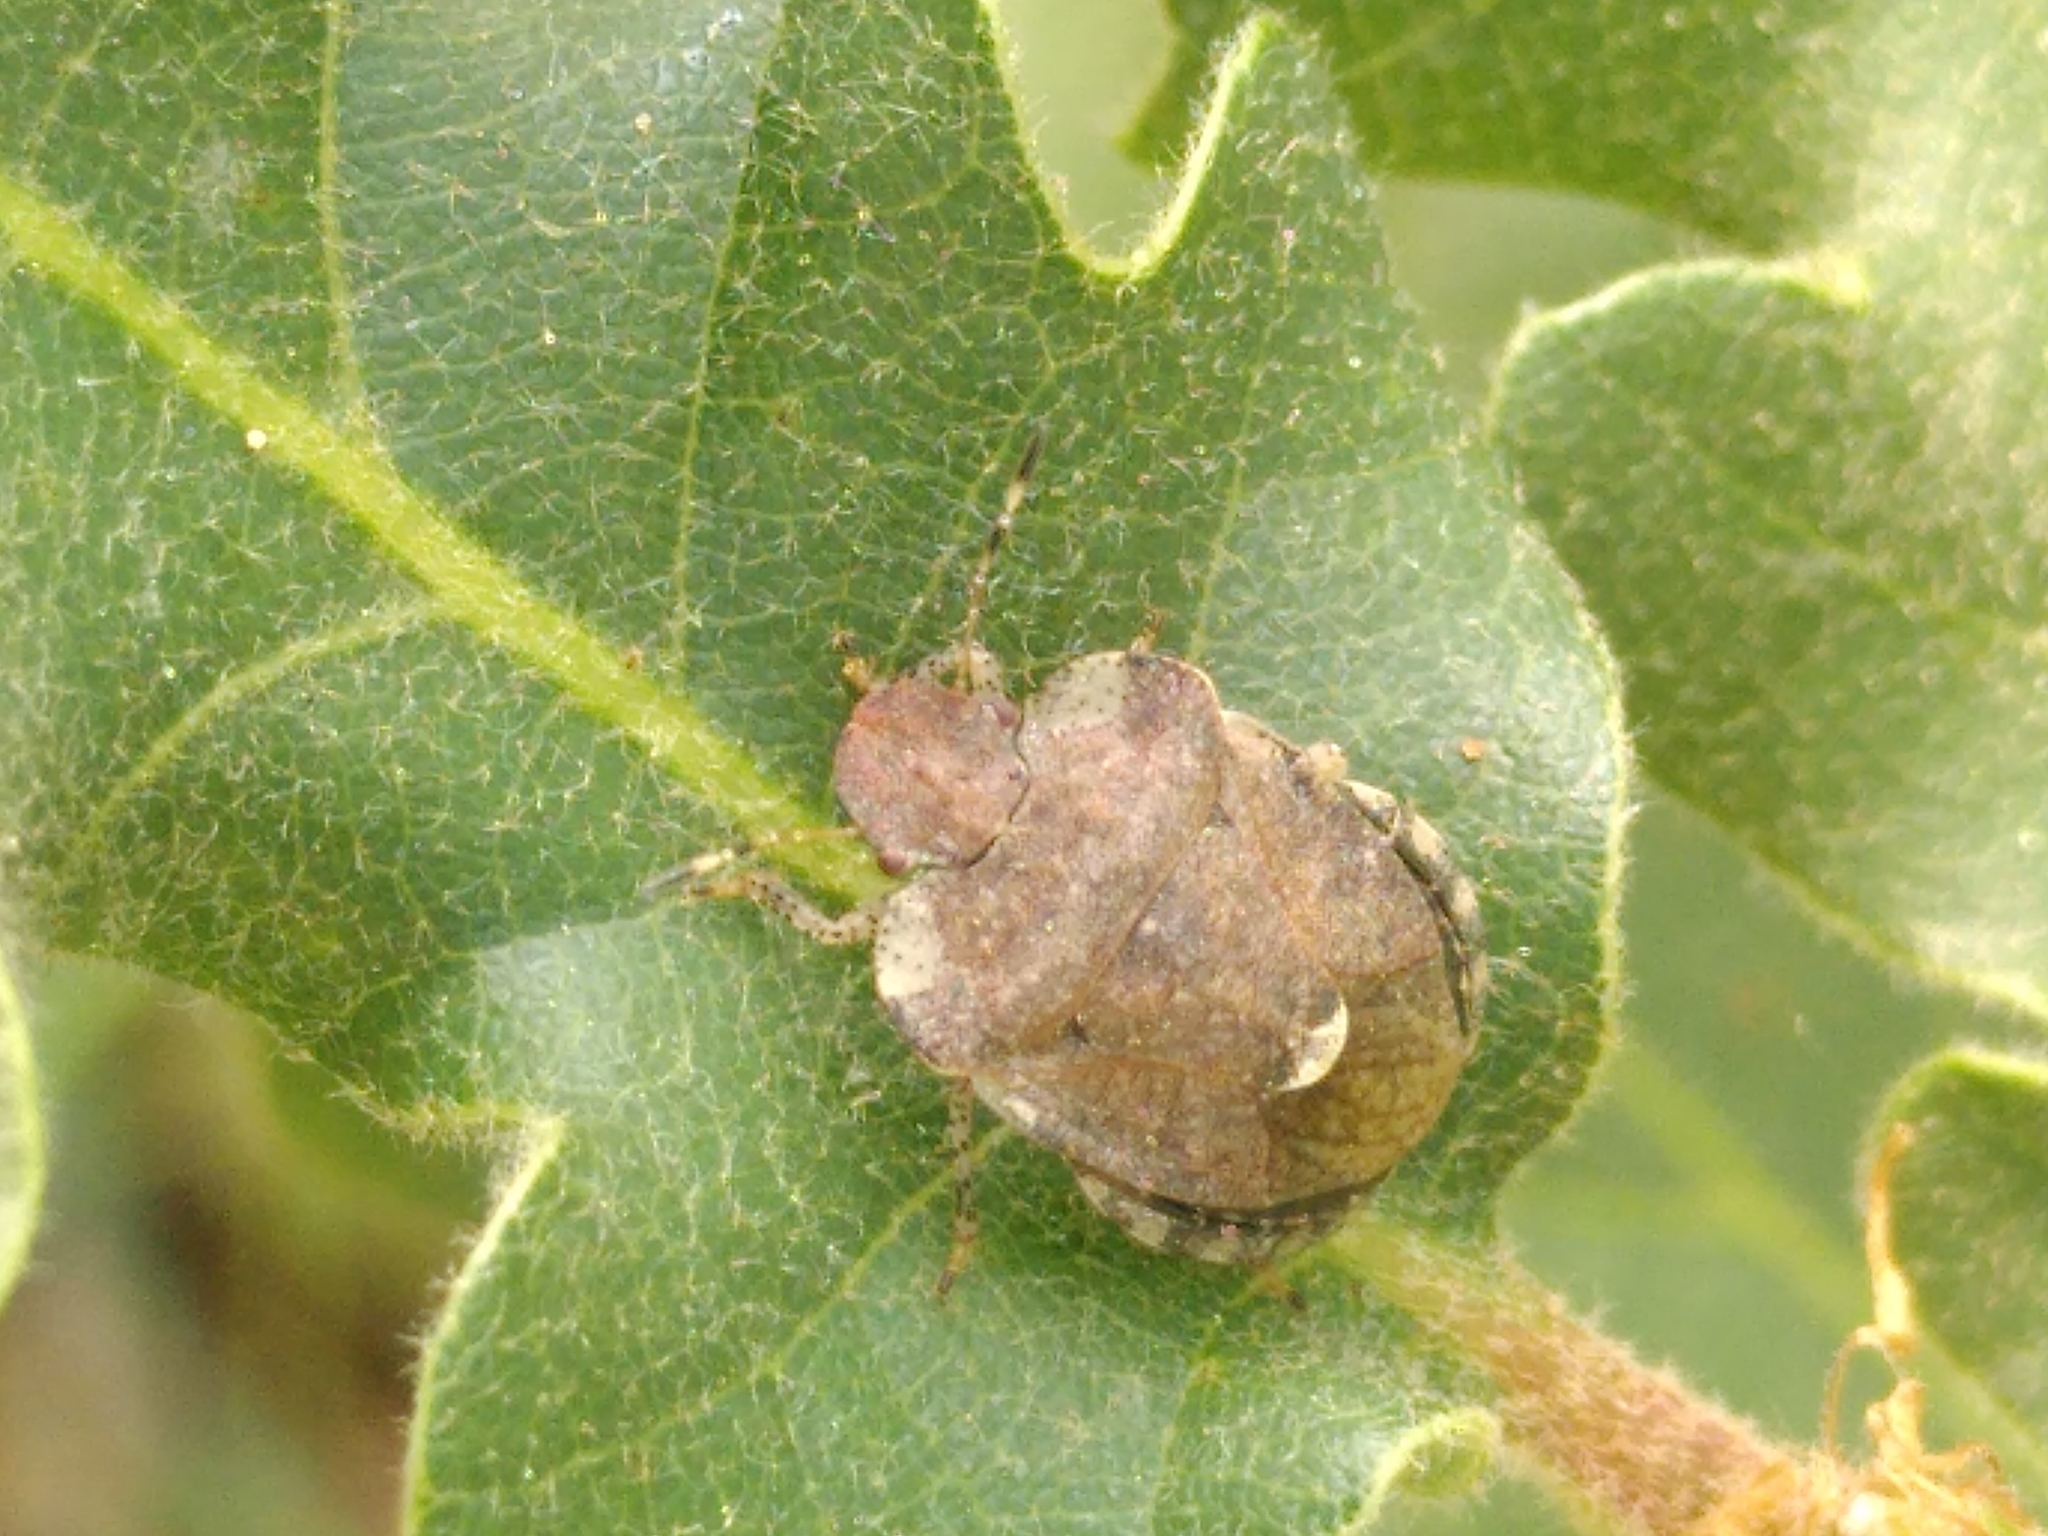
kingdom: Animalia
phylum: Arthropoda
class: Insecta
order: Hemiptera
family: Pentatomidae
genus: Dyroderes
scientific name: Dyroderes umbraculatus
